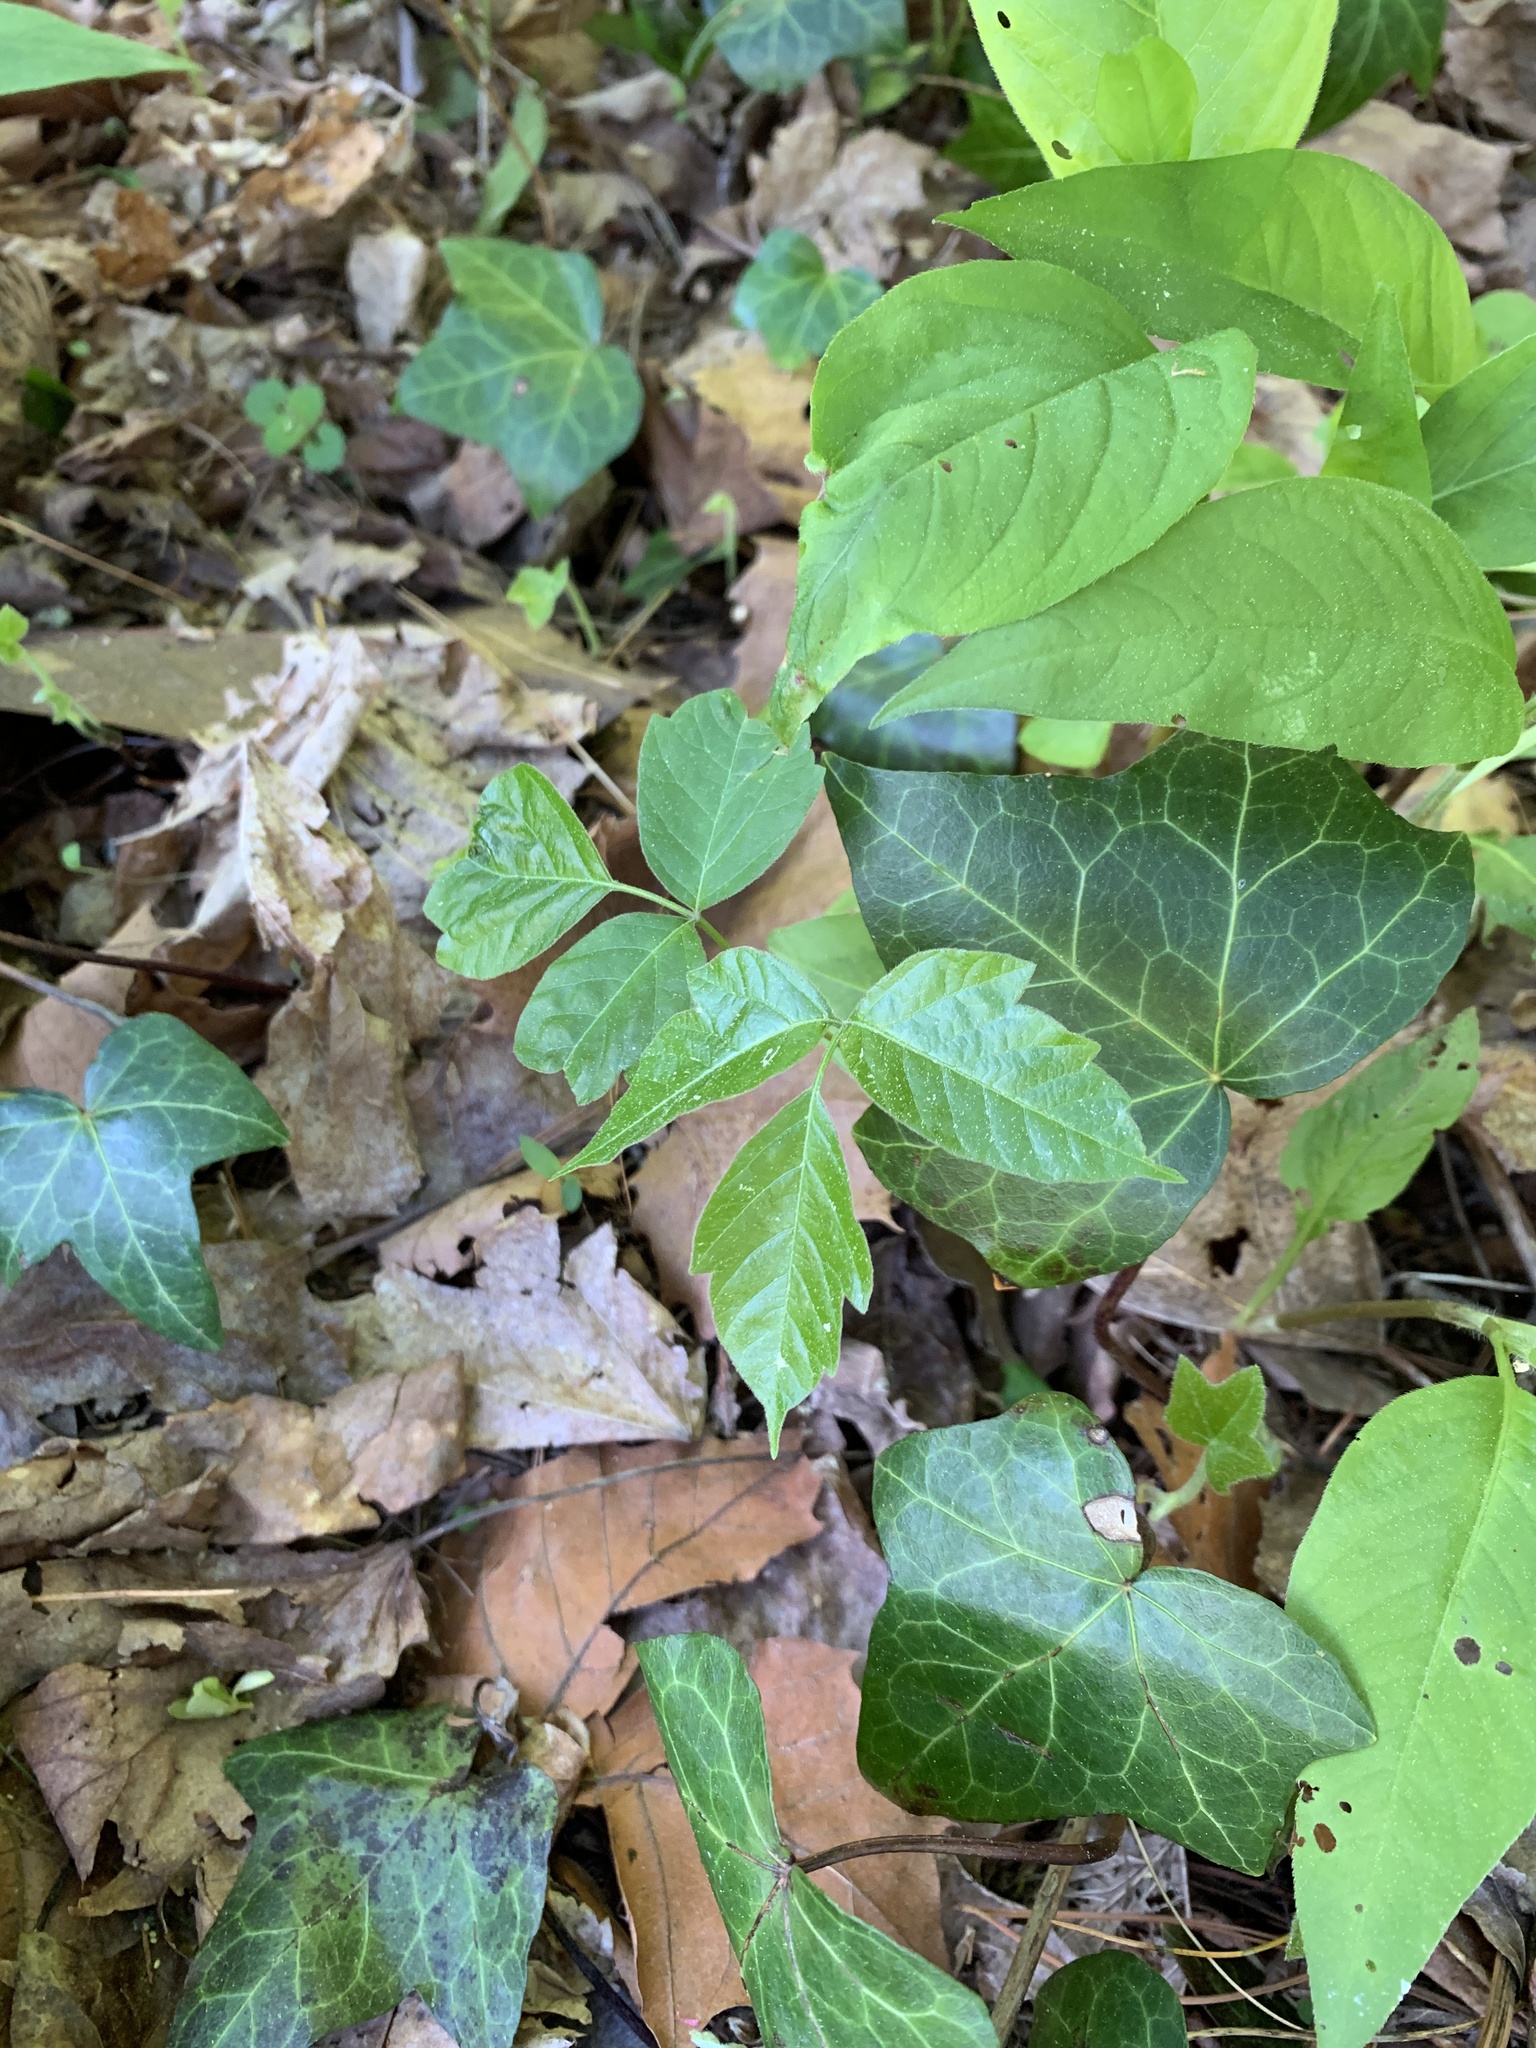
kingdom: Plantae
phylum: Tracheophyta
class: Magnoliopsida
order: Sapindales
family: Anacardiaceae
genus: Toxicodendron
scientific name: Toxicodendron radicans
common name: Poison ivy
